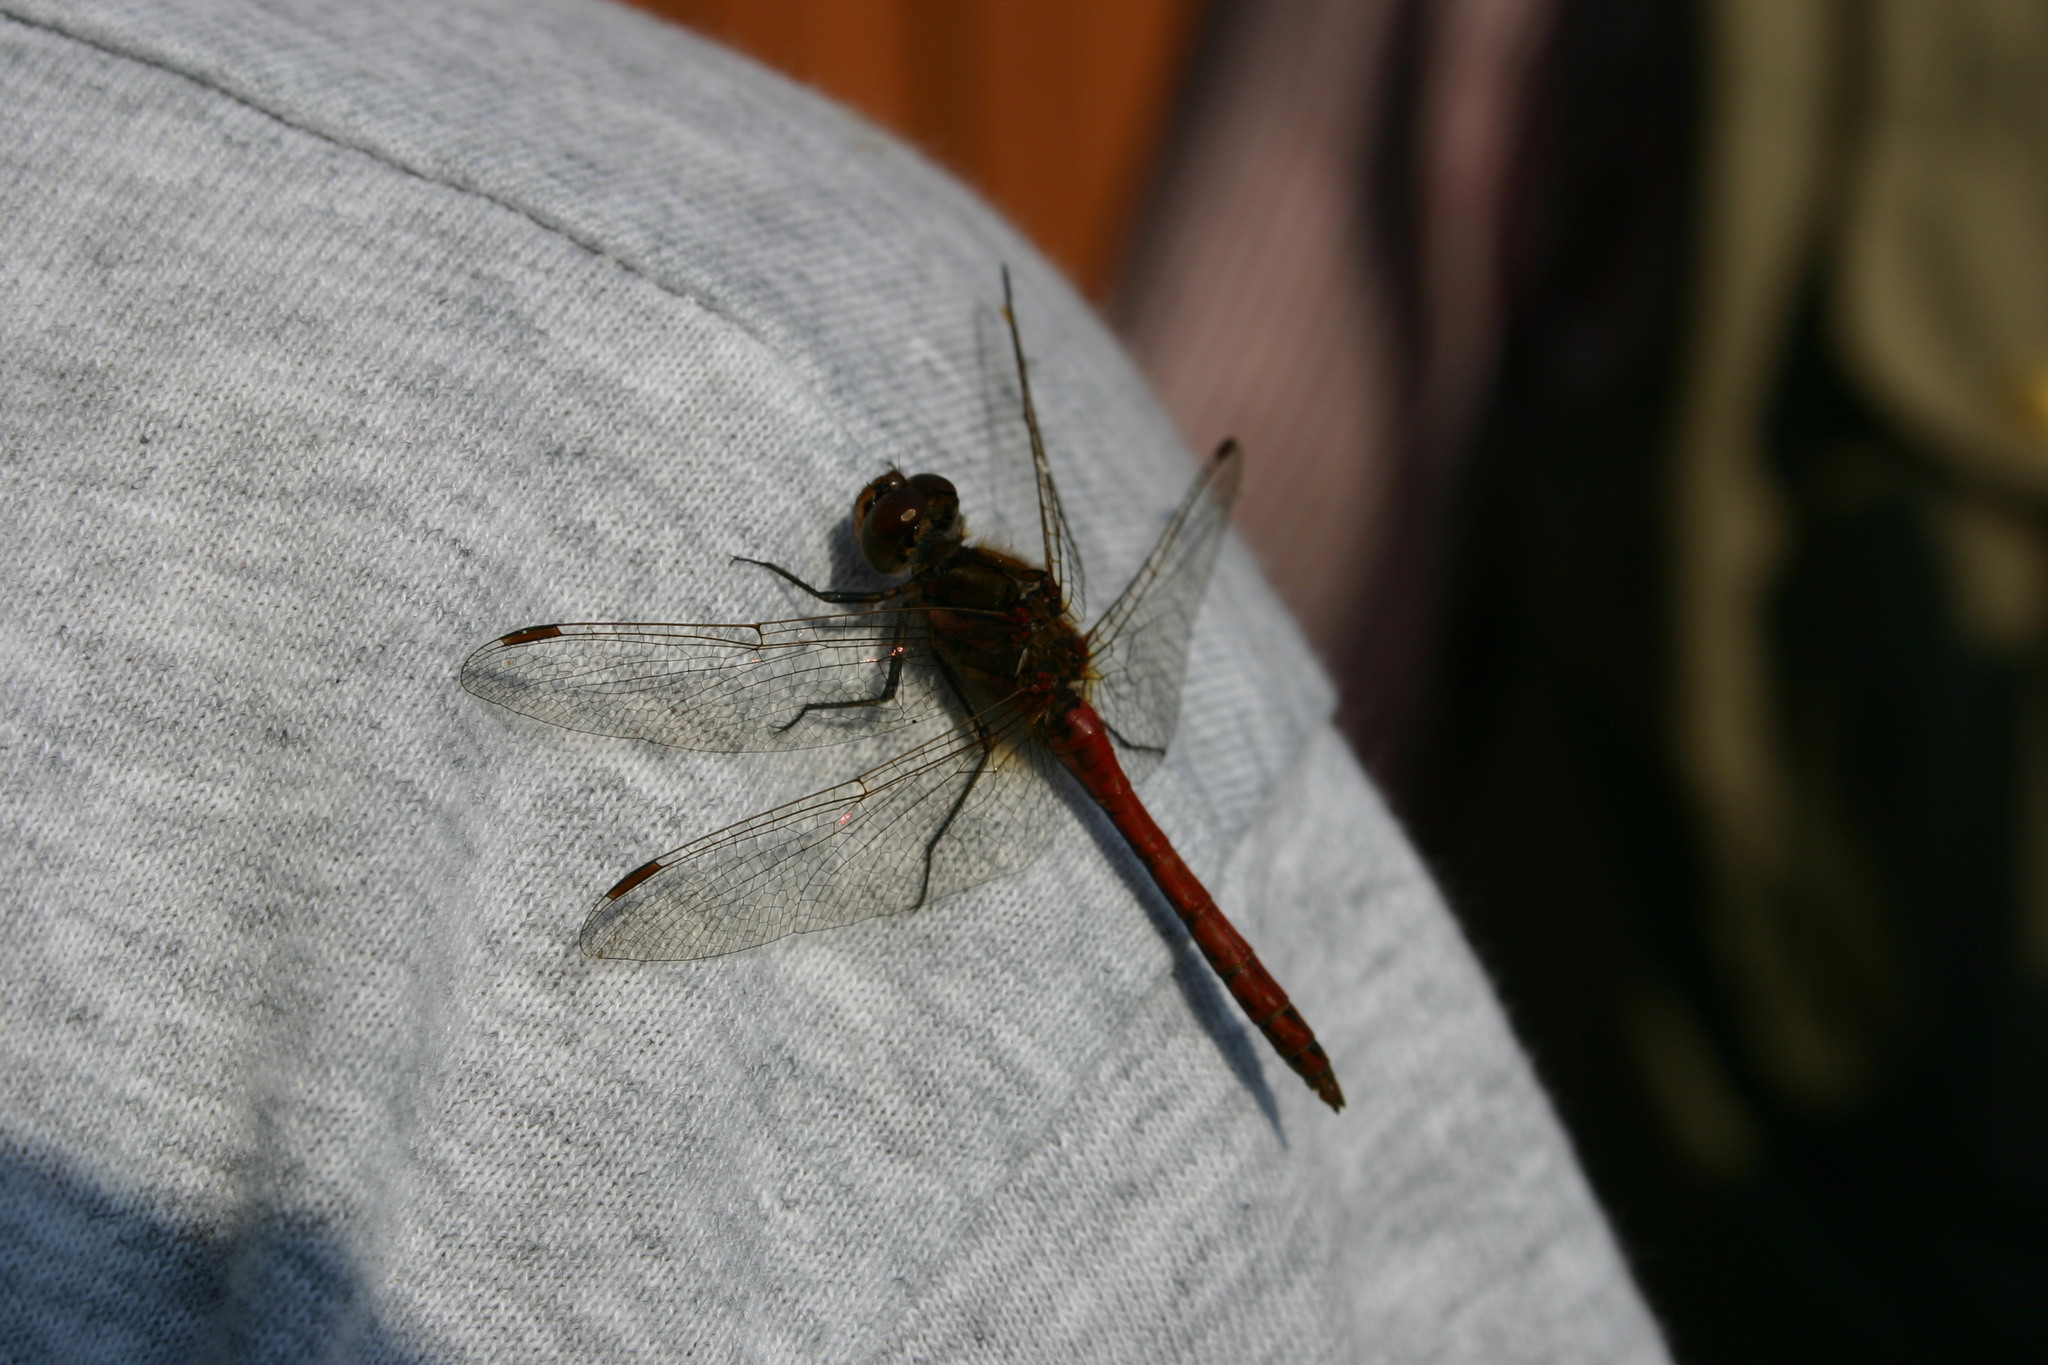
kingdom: Animalia
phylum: Arthropoda
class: Insecta
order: Odonata
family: Libellulidae
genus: Sympetrum
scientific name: Sympetrum vulgatum
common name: Vagrant darter
